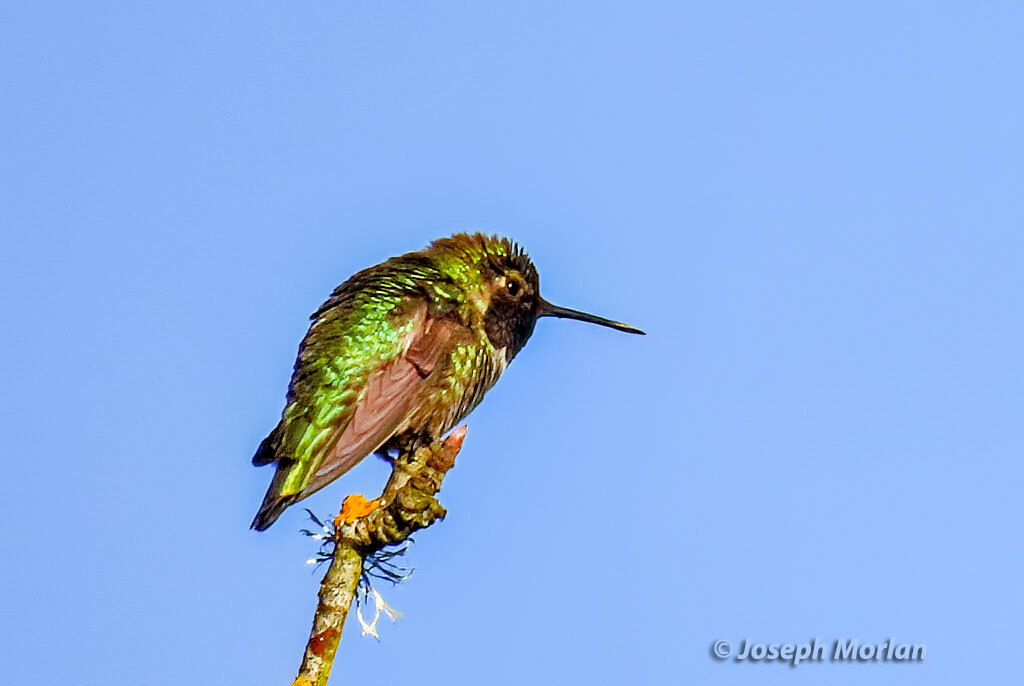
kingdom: Animalia
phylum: Chordata
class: Aves
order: Apodiformes
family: Trochilidae
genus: Calypte
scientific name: Calypte anna
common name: Anna's hummingbird
